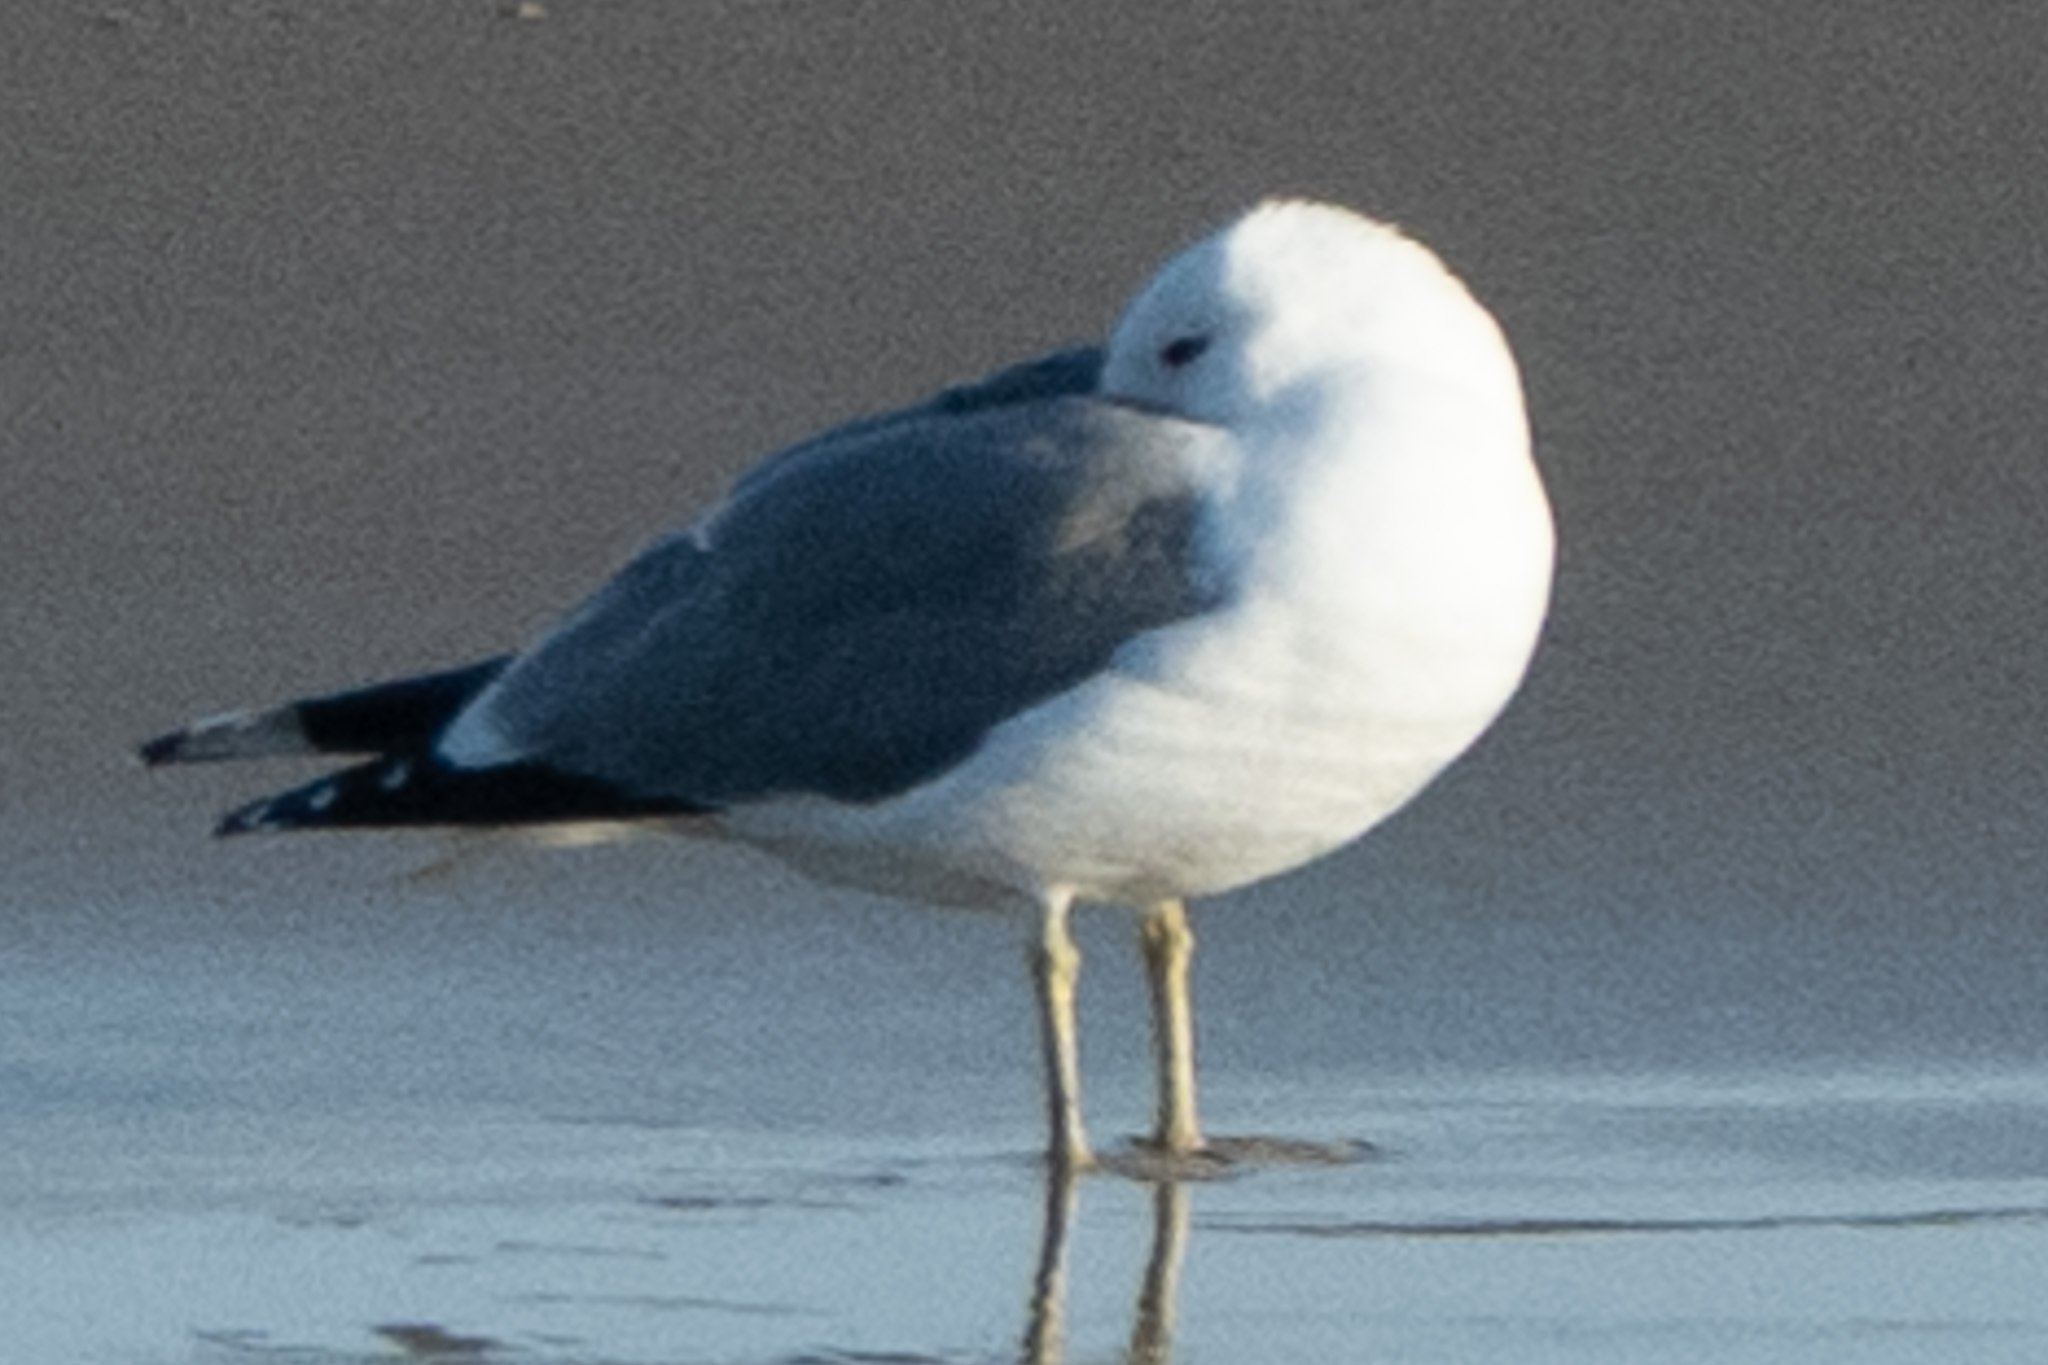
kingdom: Animalia
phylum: Chordata
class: Aves
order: Charadriiformes
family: Laridae
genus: Larus
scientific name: Larus californicus
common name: California gull
